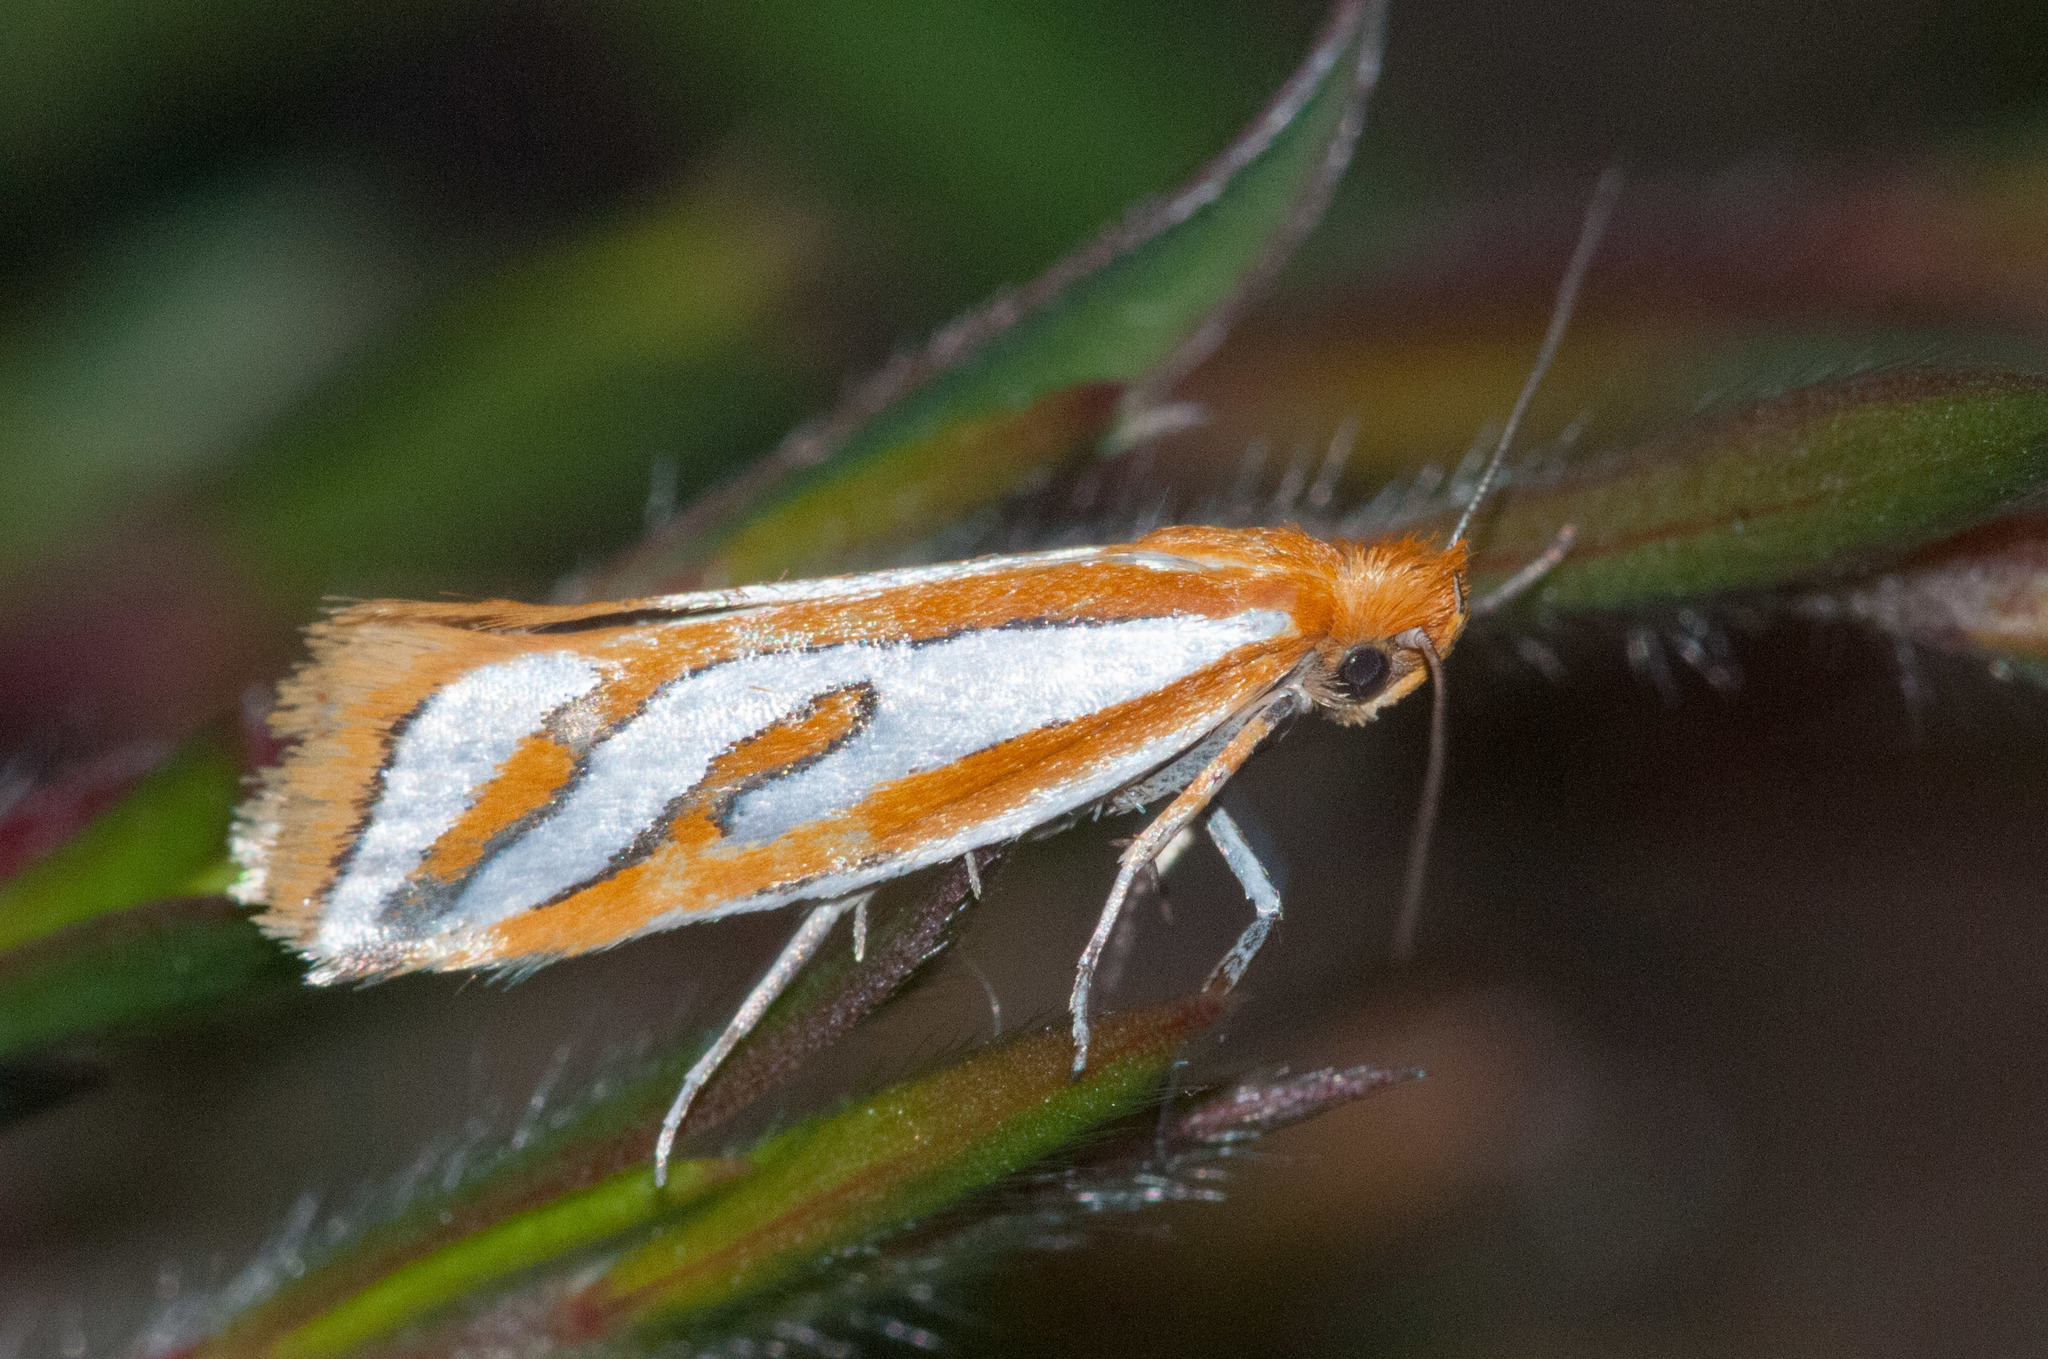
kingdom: Animalia
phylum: Arthropoda
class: Insecta
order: Lepidoptera
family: Depressariidae
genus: Thudaca
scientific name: Thudaca haplonota
